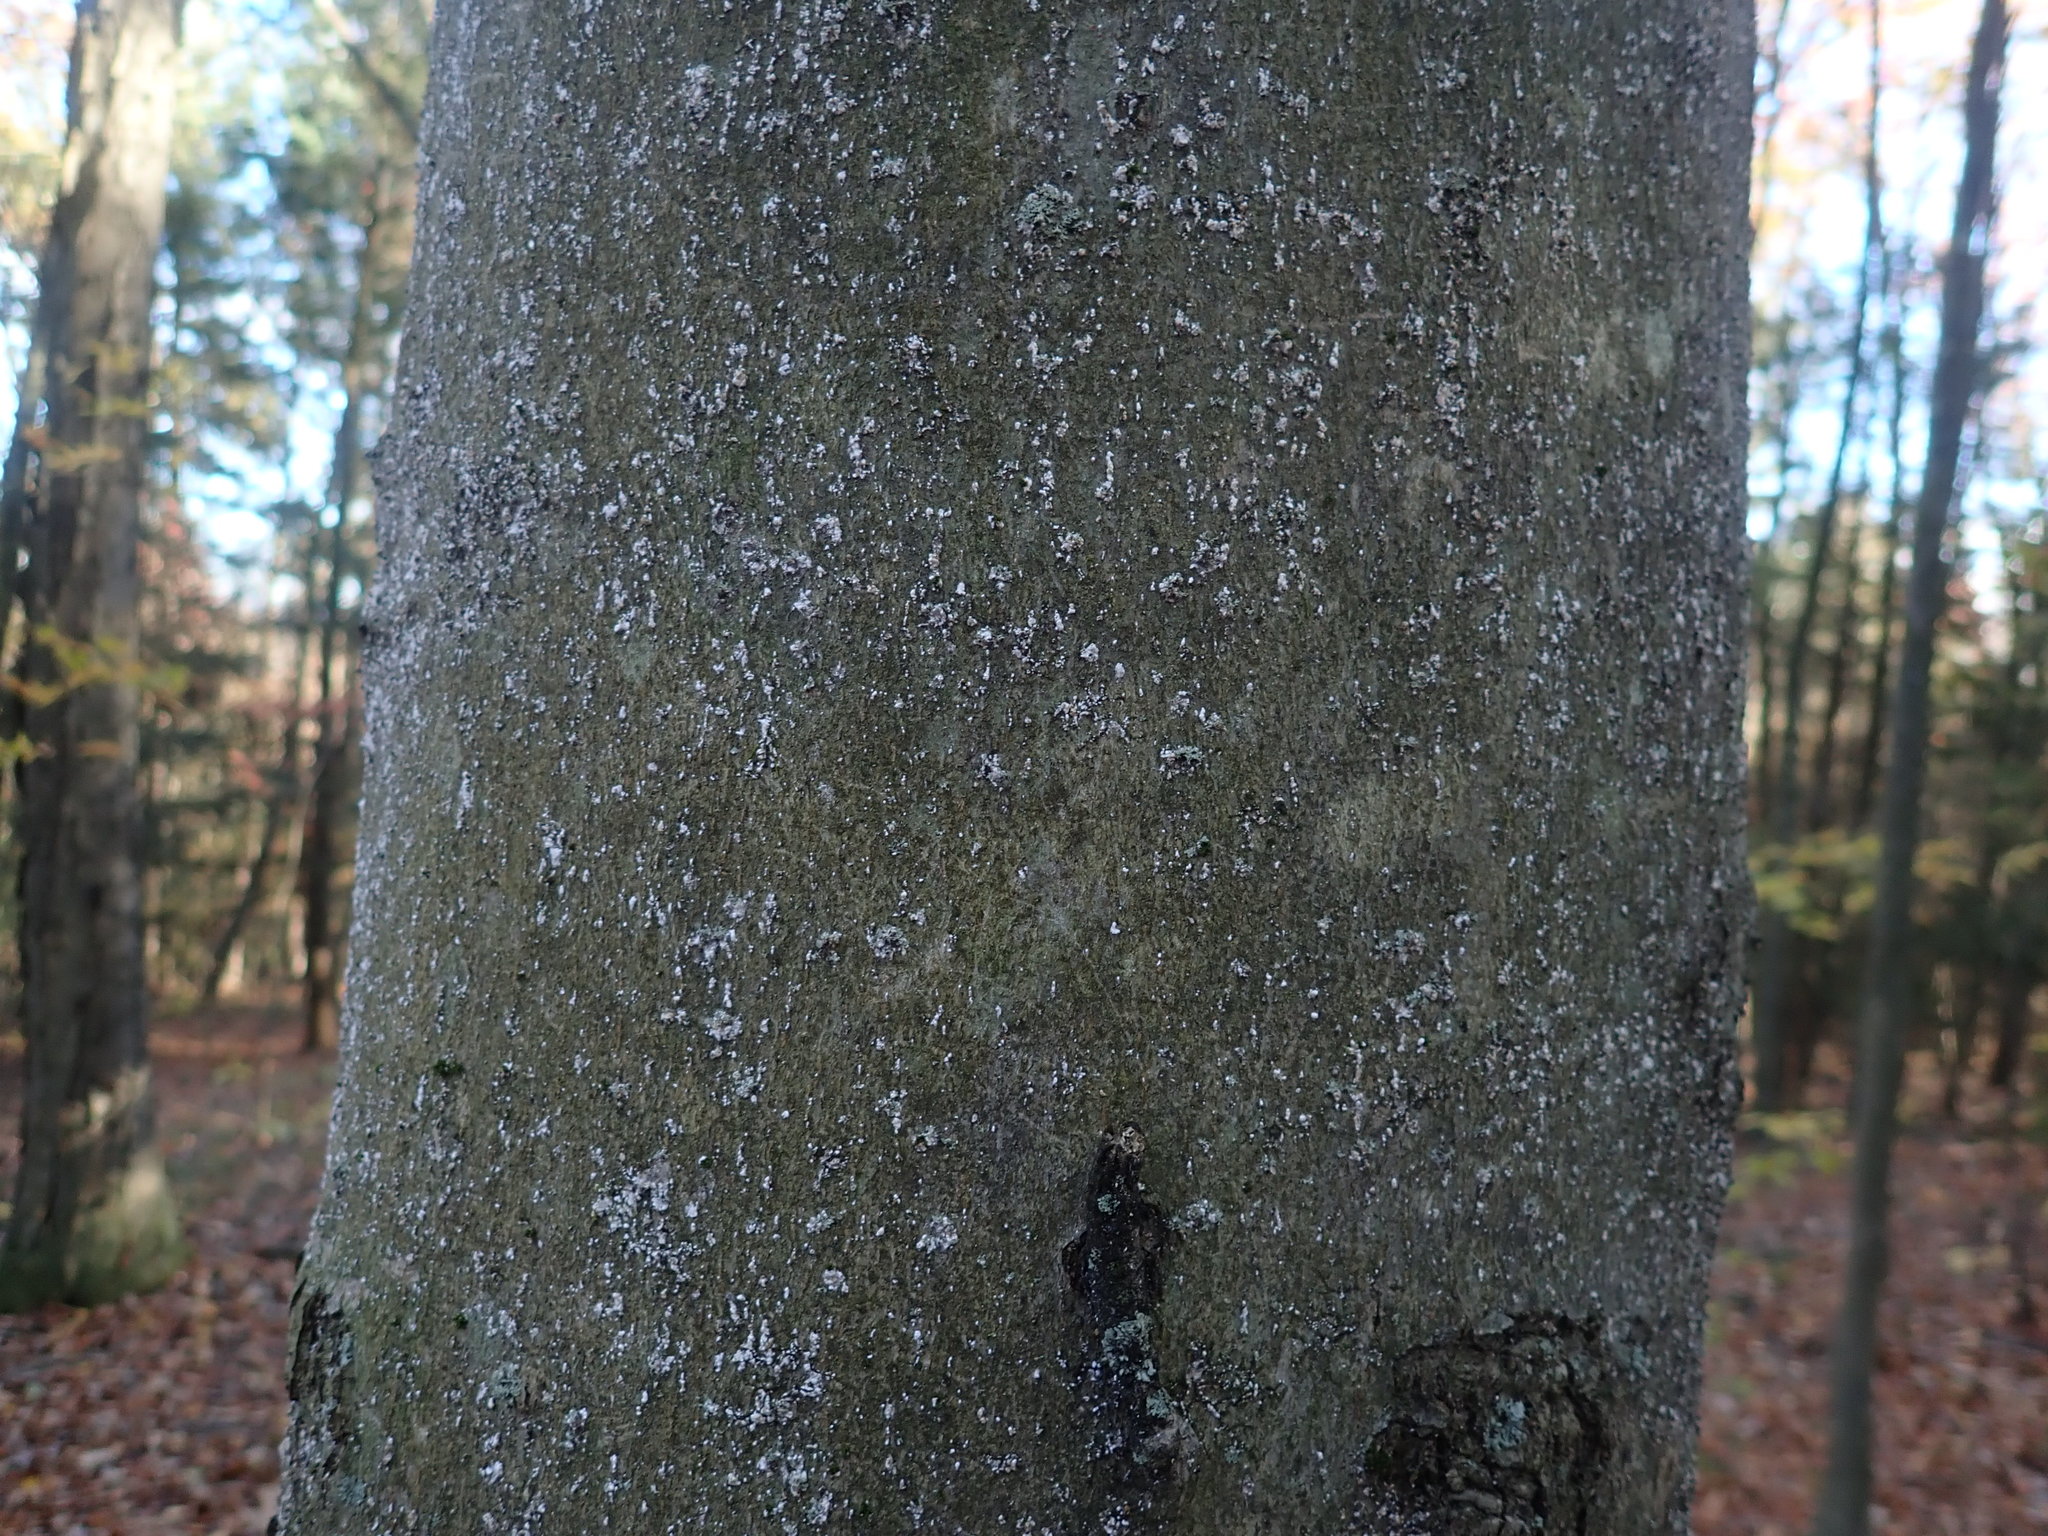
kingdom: Animalia
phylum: Arthropoda
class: Insecta
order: Hemiptera
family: Eriococcidae
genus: Cryptococcus
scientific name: Cryptococcus fagisuga
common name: Beech scale
